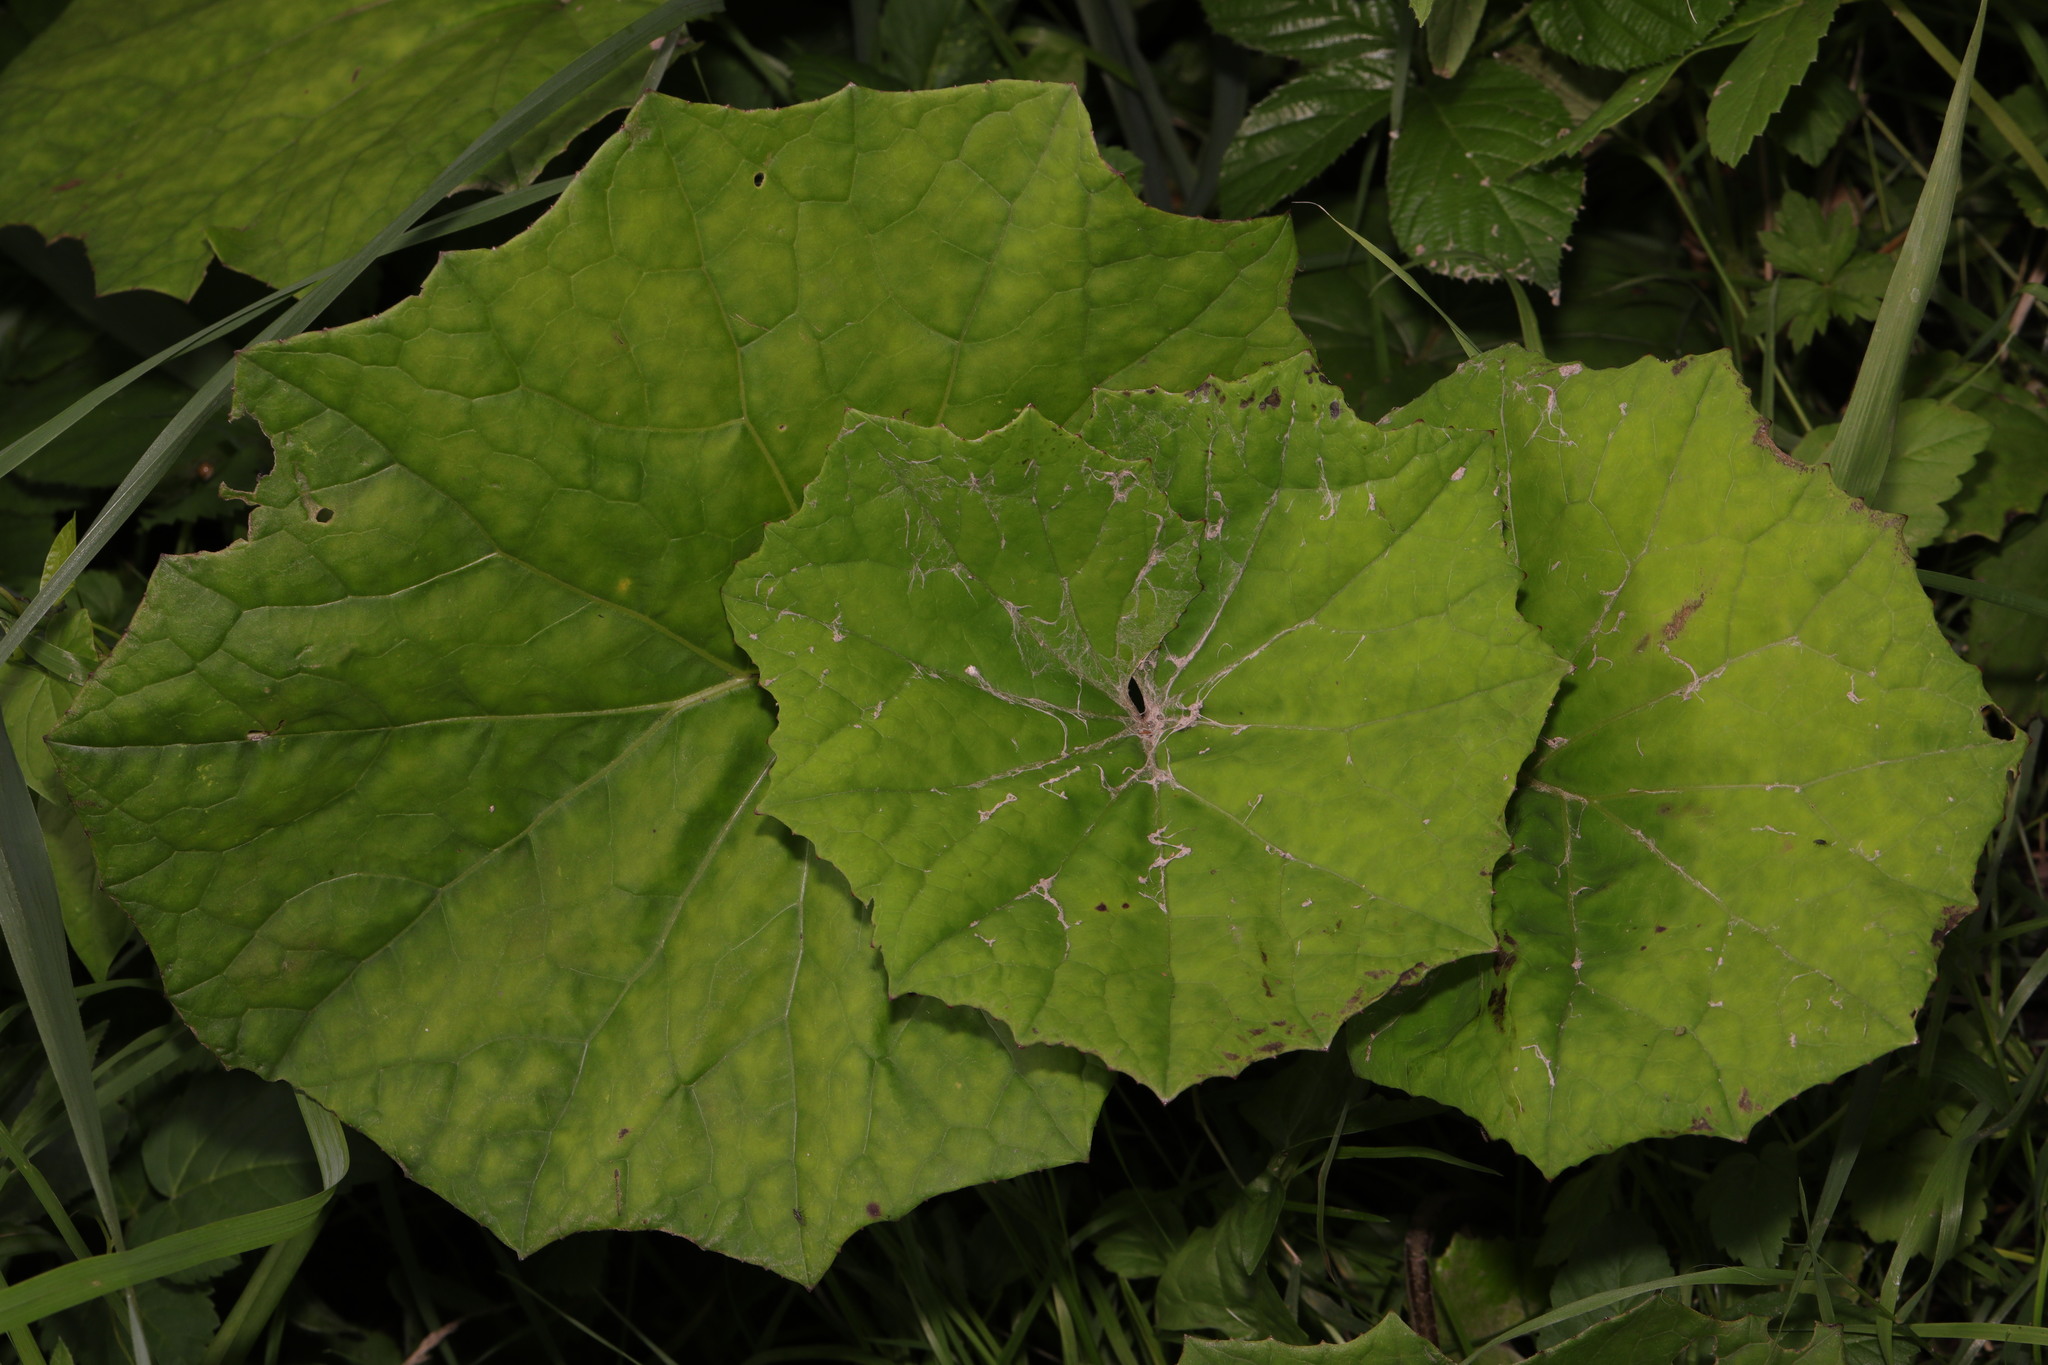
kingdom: Plantae
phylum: Tracheophyta
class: Magnoliopsida
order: Asterales
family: Asteraceae
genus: Tussilago
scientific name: Tussilago farfara
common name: Coltsfoot
